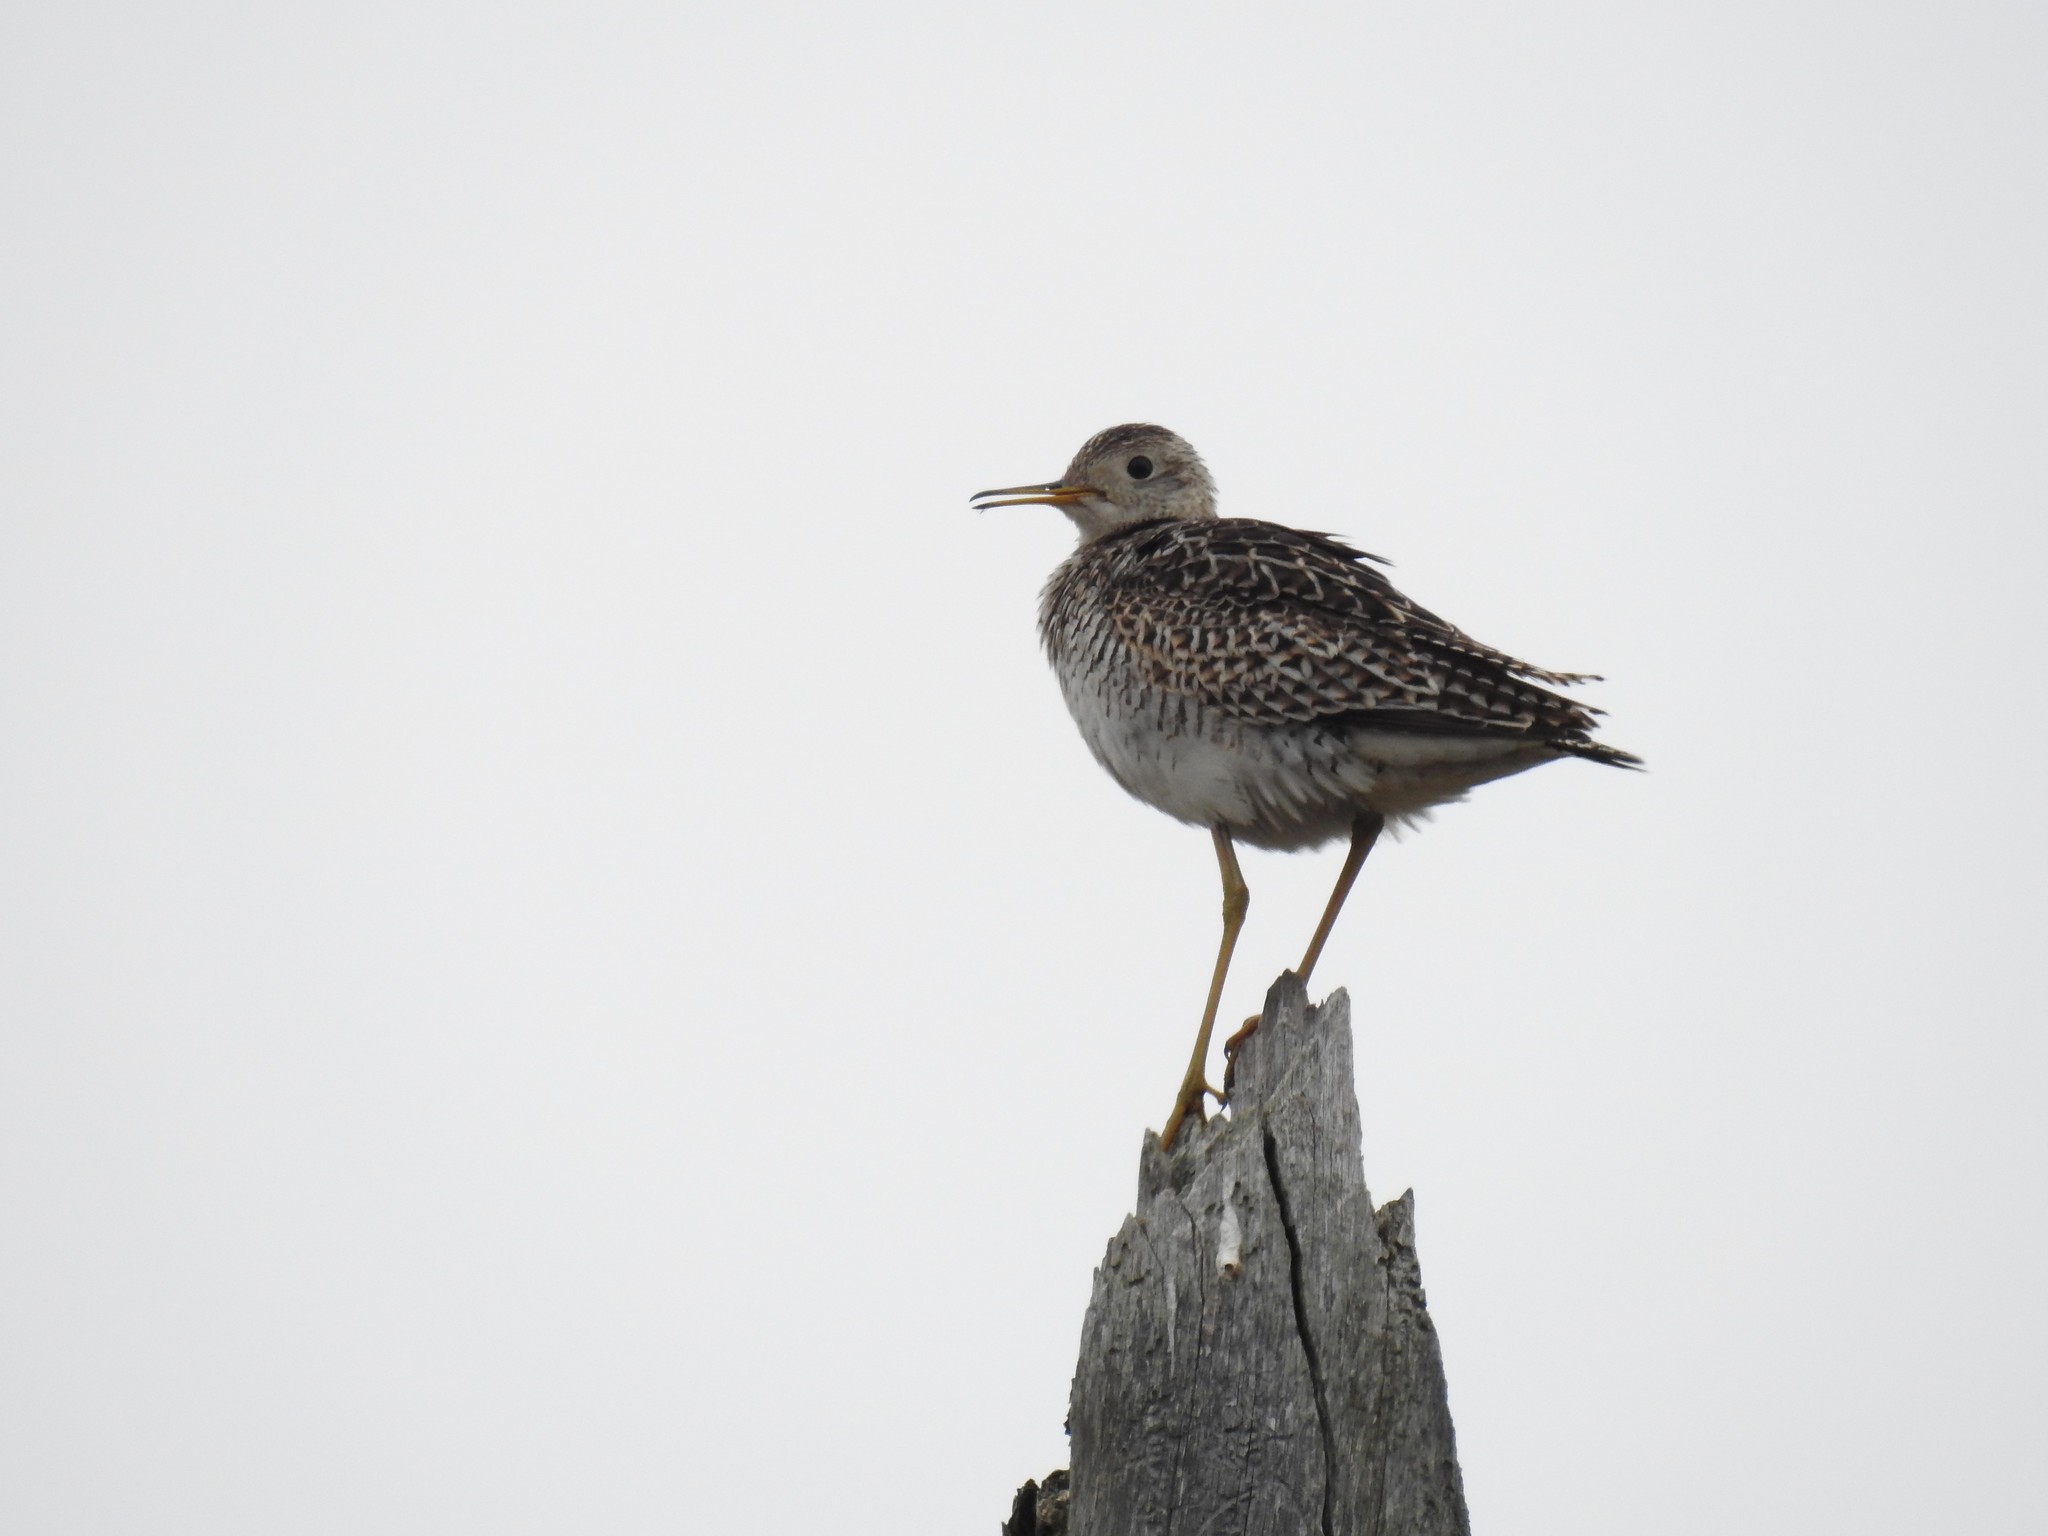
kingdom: Animalia
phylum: Chordata
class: Aves
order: Charadriiformes
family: Scolopacidae
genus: Bartramia
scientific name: Bartramia longicauda
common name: Upland sandpiper
